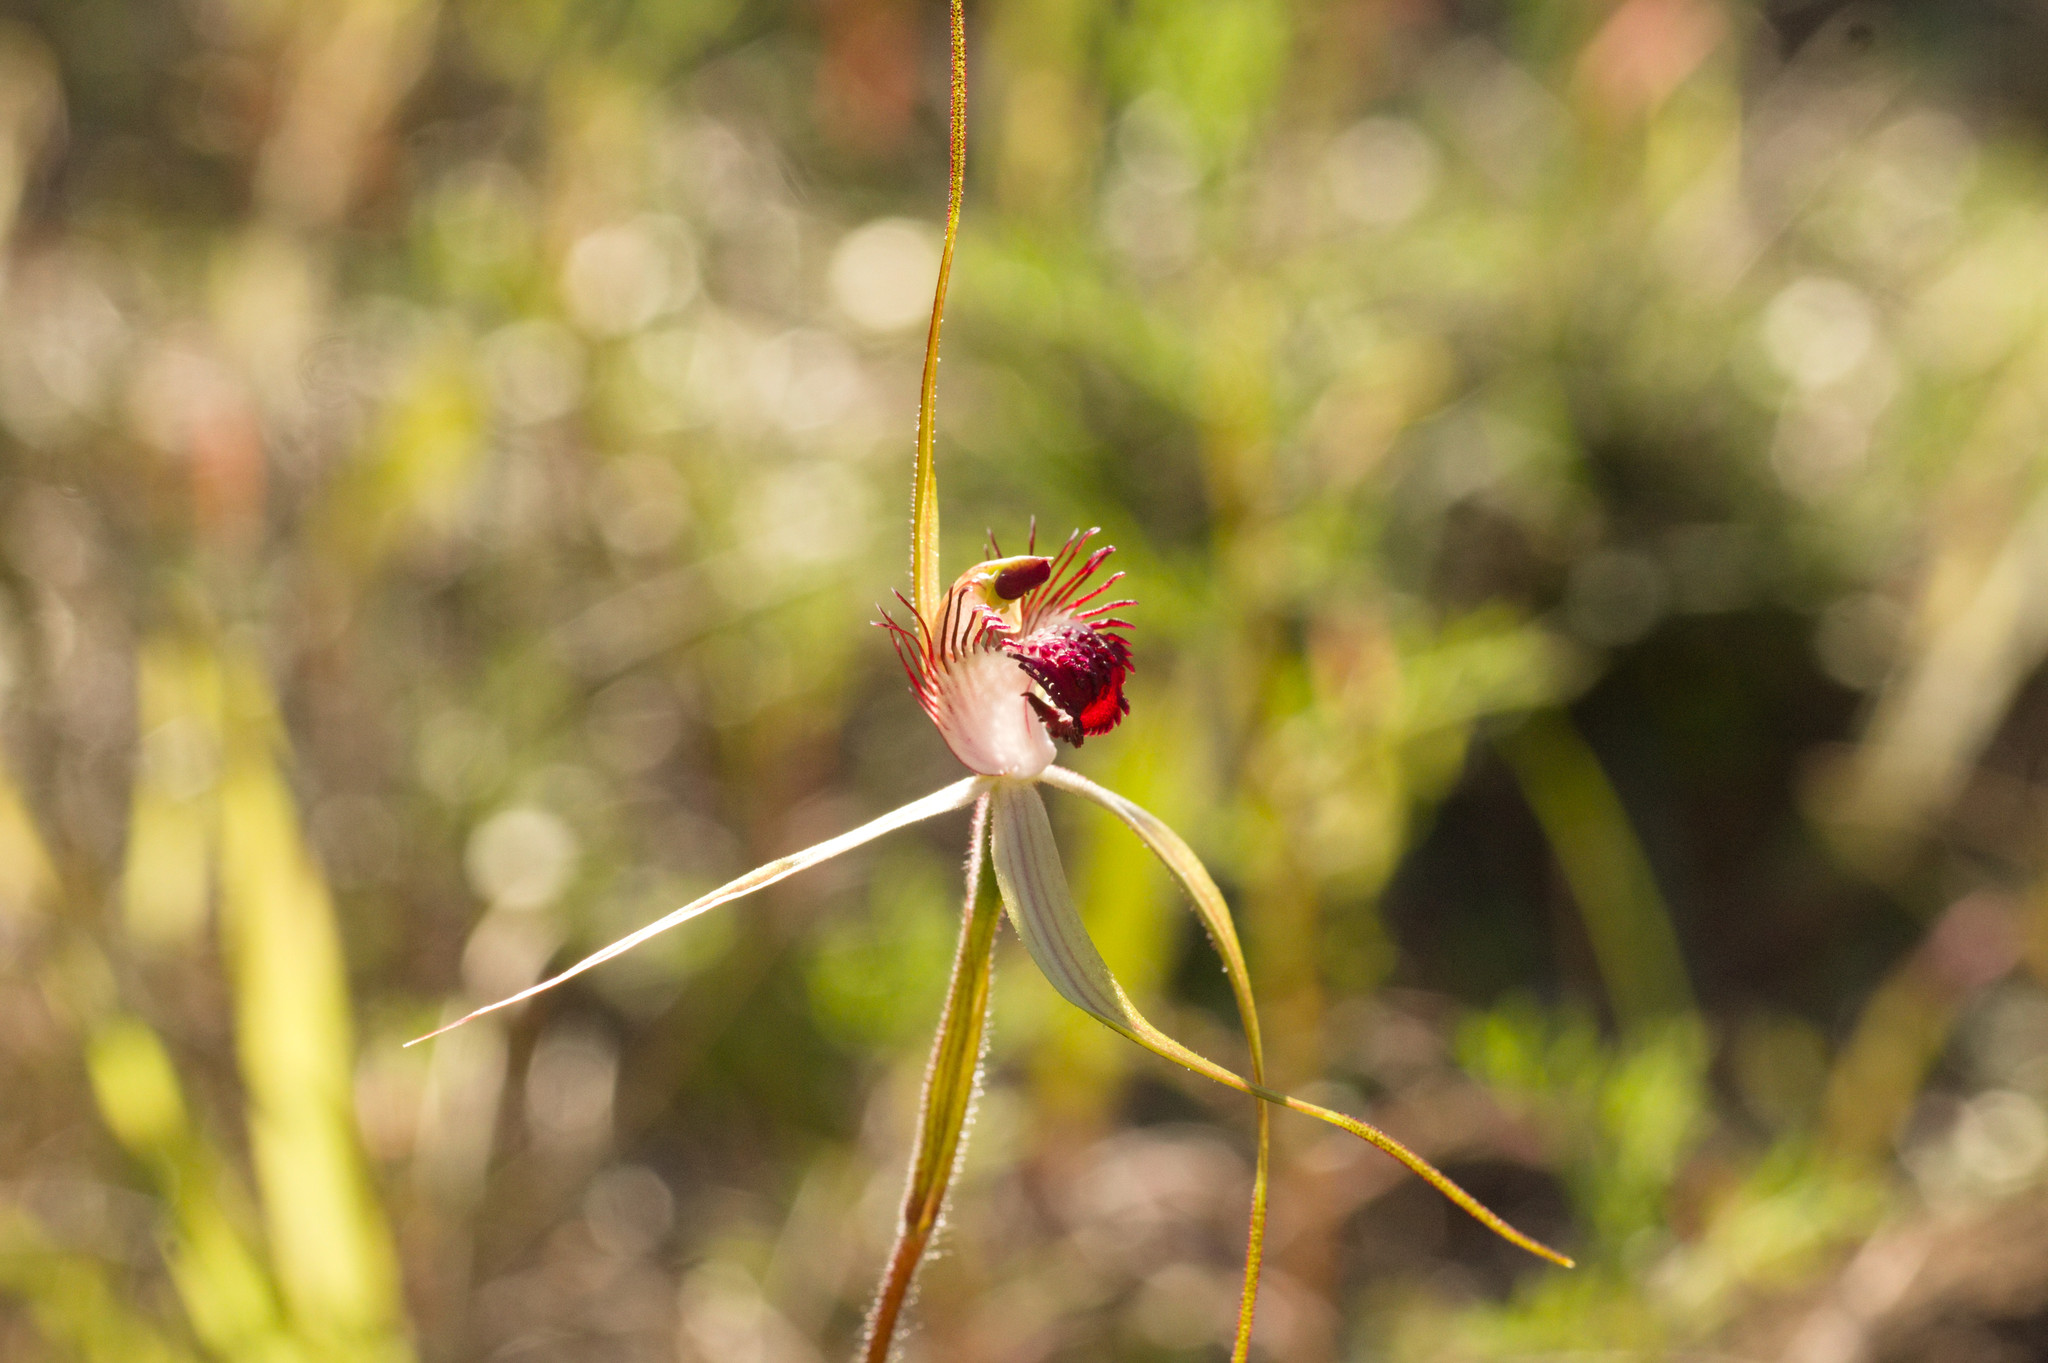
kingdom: Plantae
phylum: Tracheophyta
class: Liliopsida
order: Asparagales
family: Orchidaceae
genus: Caladenia
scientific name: Caladenia pectinata
